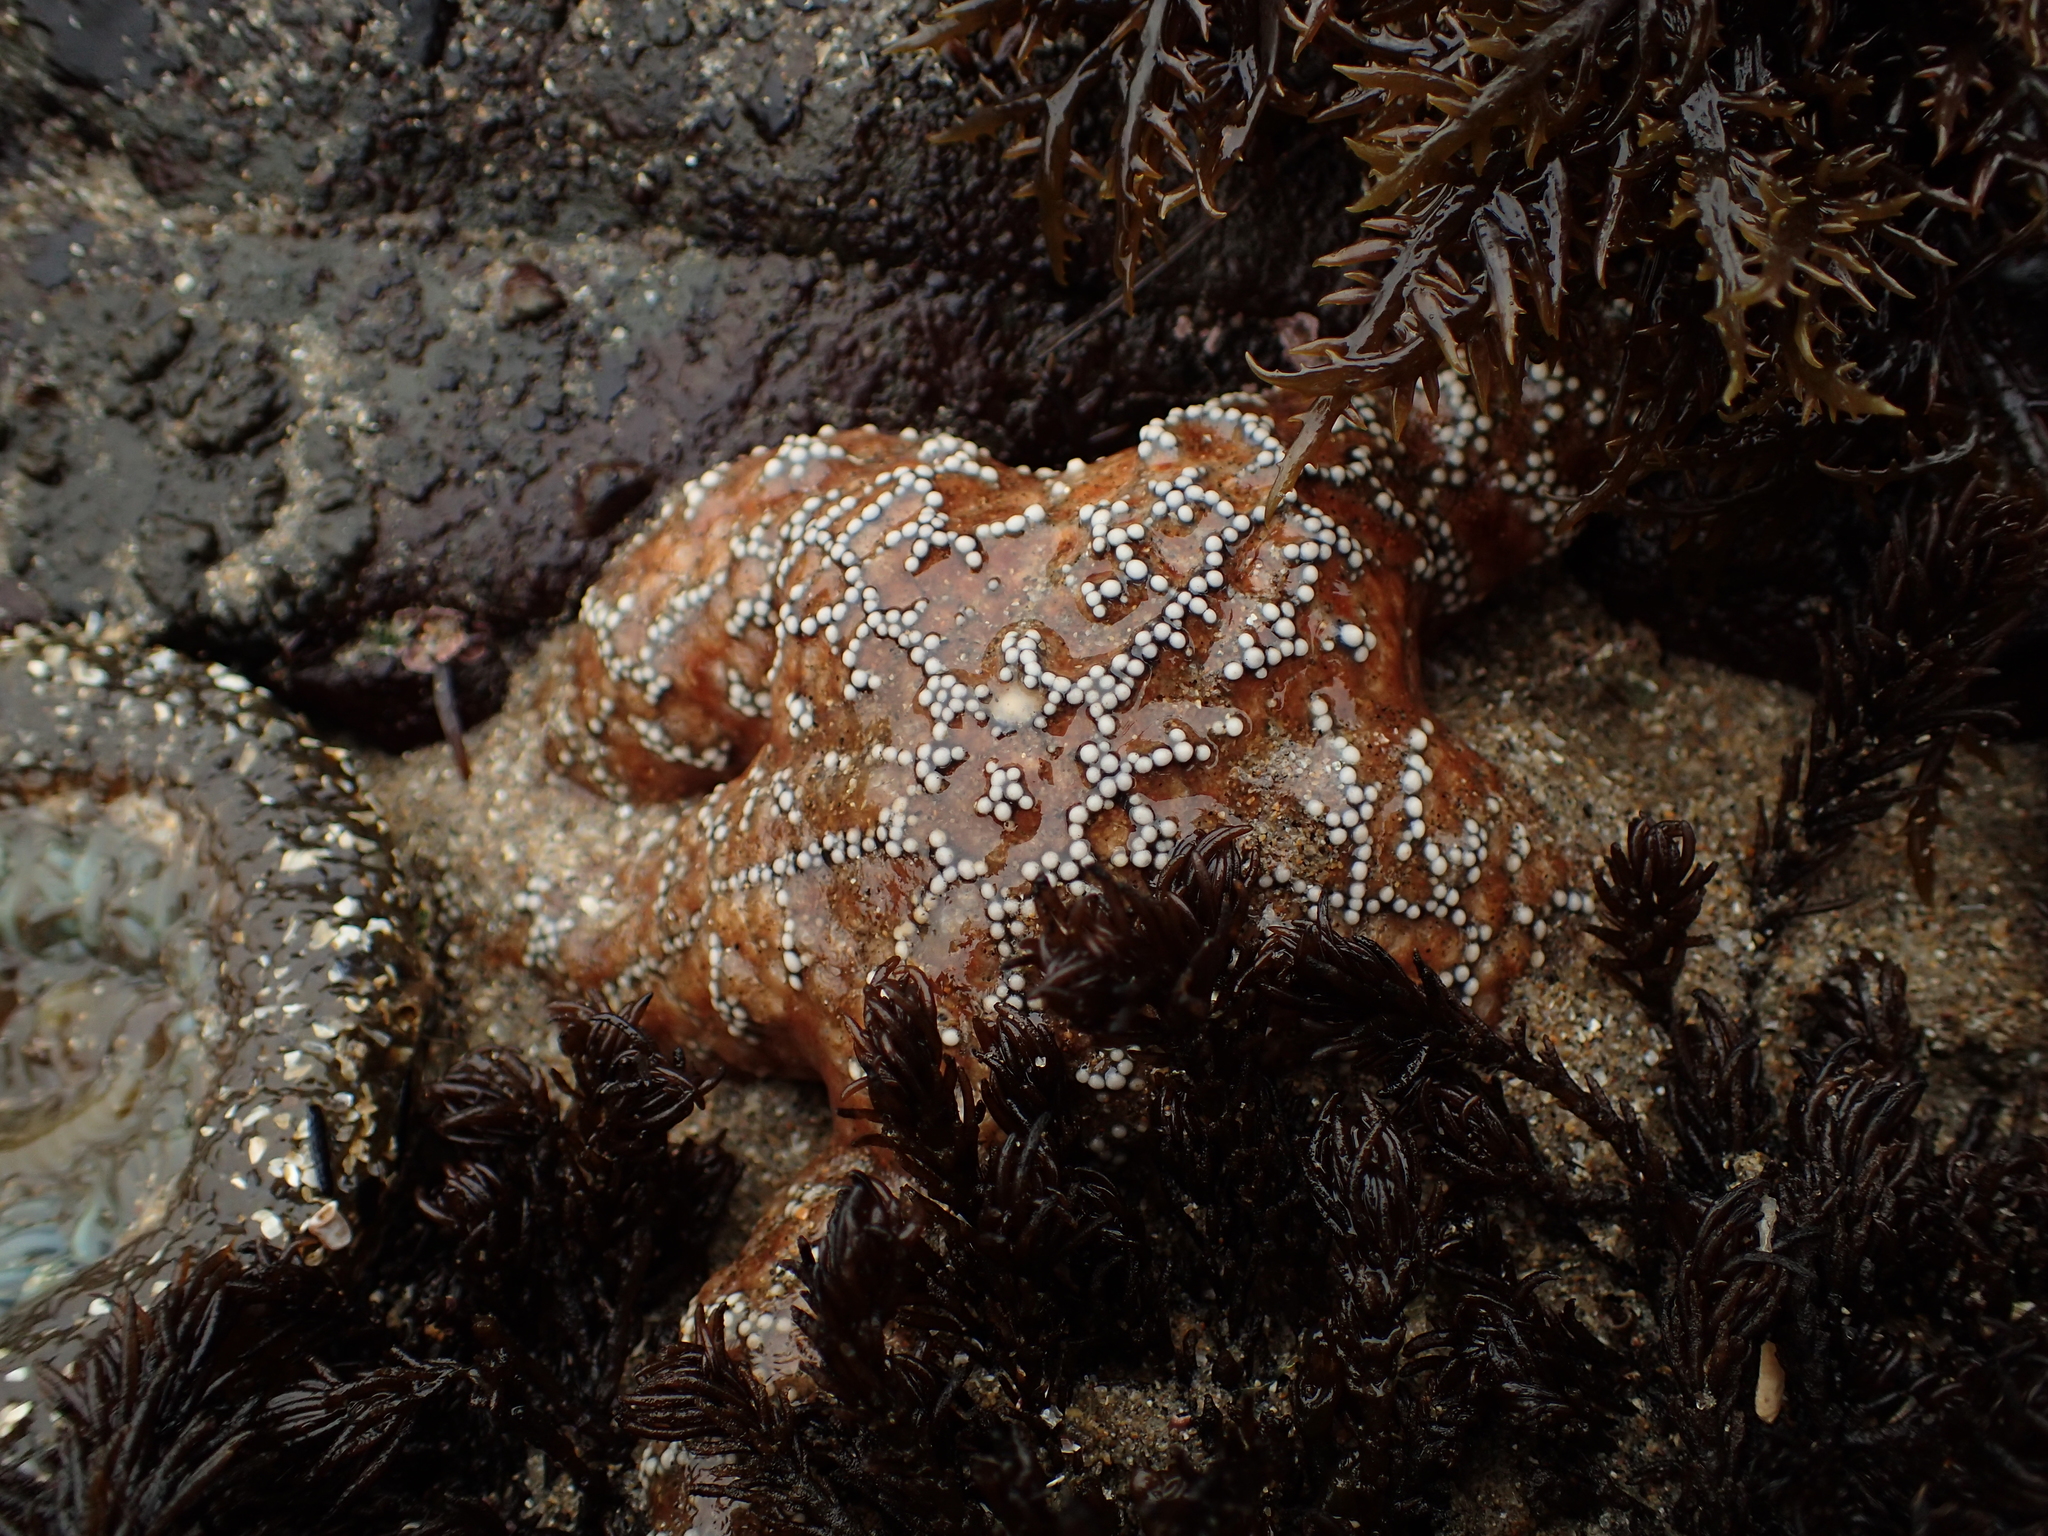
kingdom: Animalia
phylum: Echinodermata
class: Asteroidea
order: Forcipulatida
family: Asteriidae
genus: Pisaster
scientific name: Pisaster ochraceus
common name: Ochre stars
